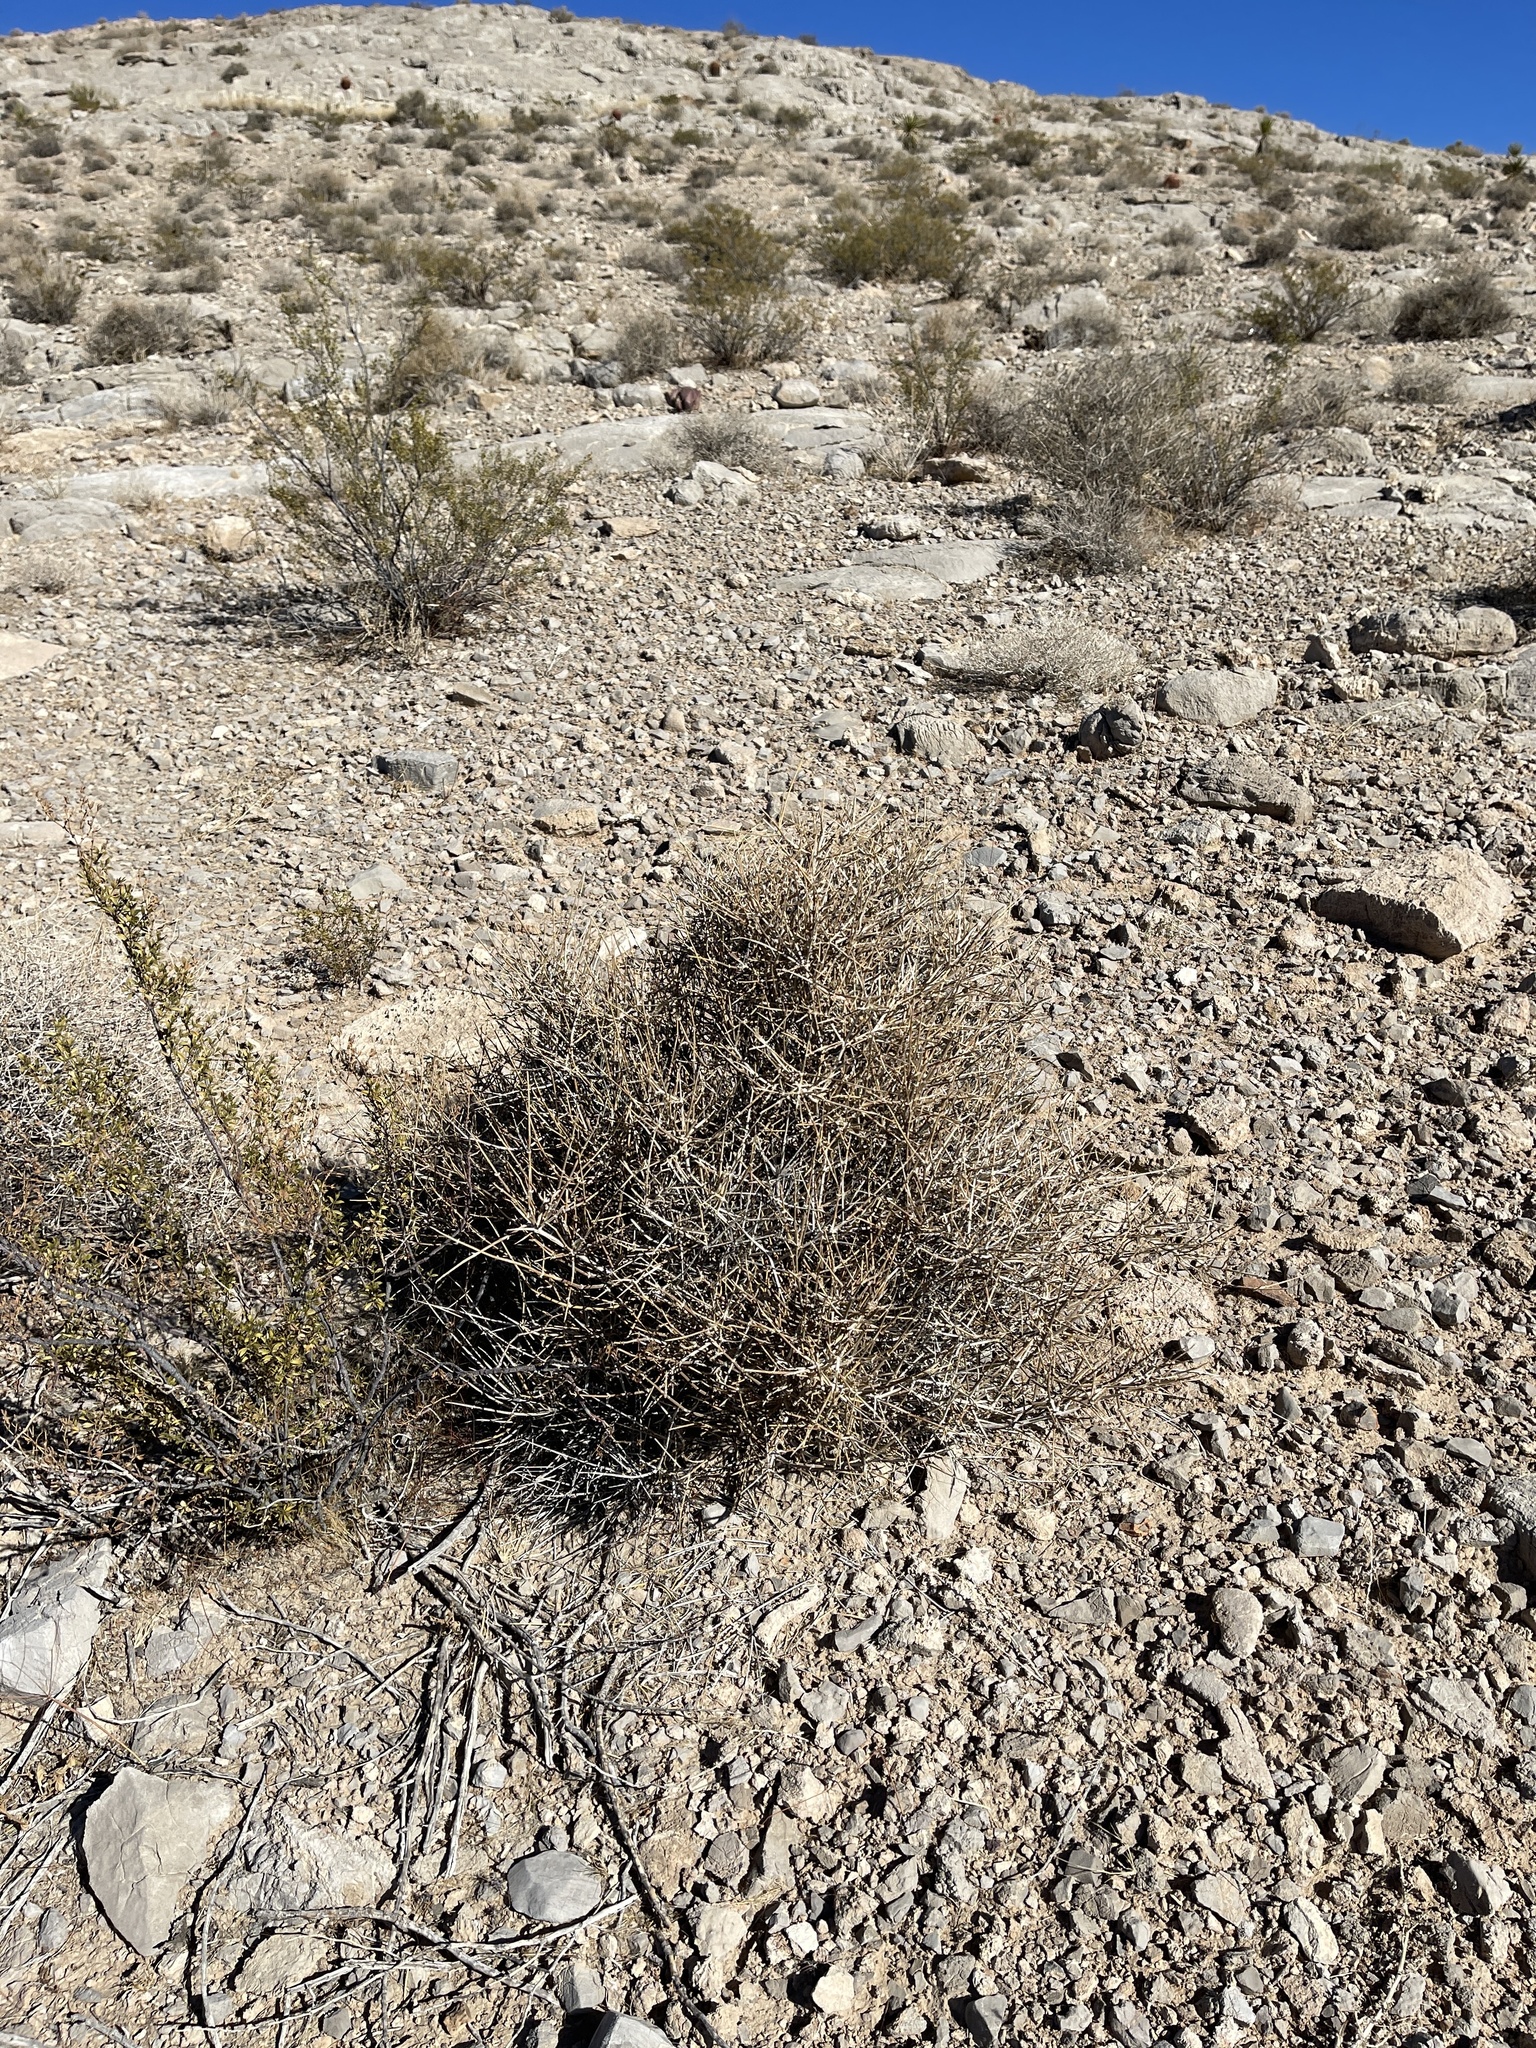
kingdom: Plantae
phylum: Tracheophyta
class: Gnetopsida
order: Ephedrales
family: Ephedraceae
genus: Ephedra
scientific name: Ephedra nevadensis
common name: Gray ephedra
